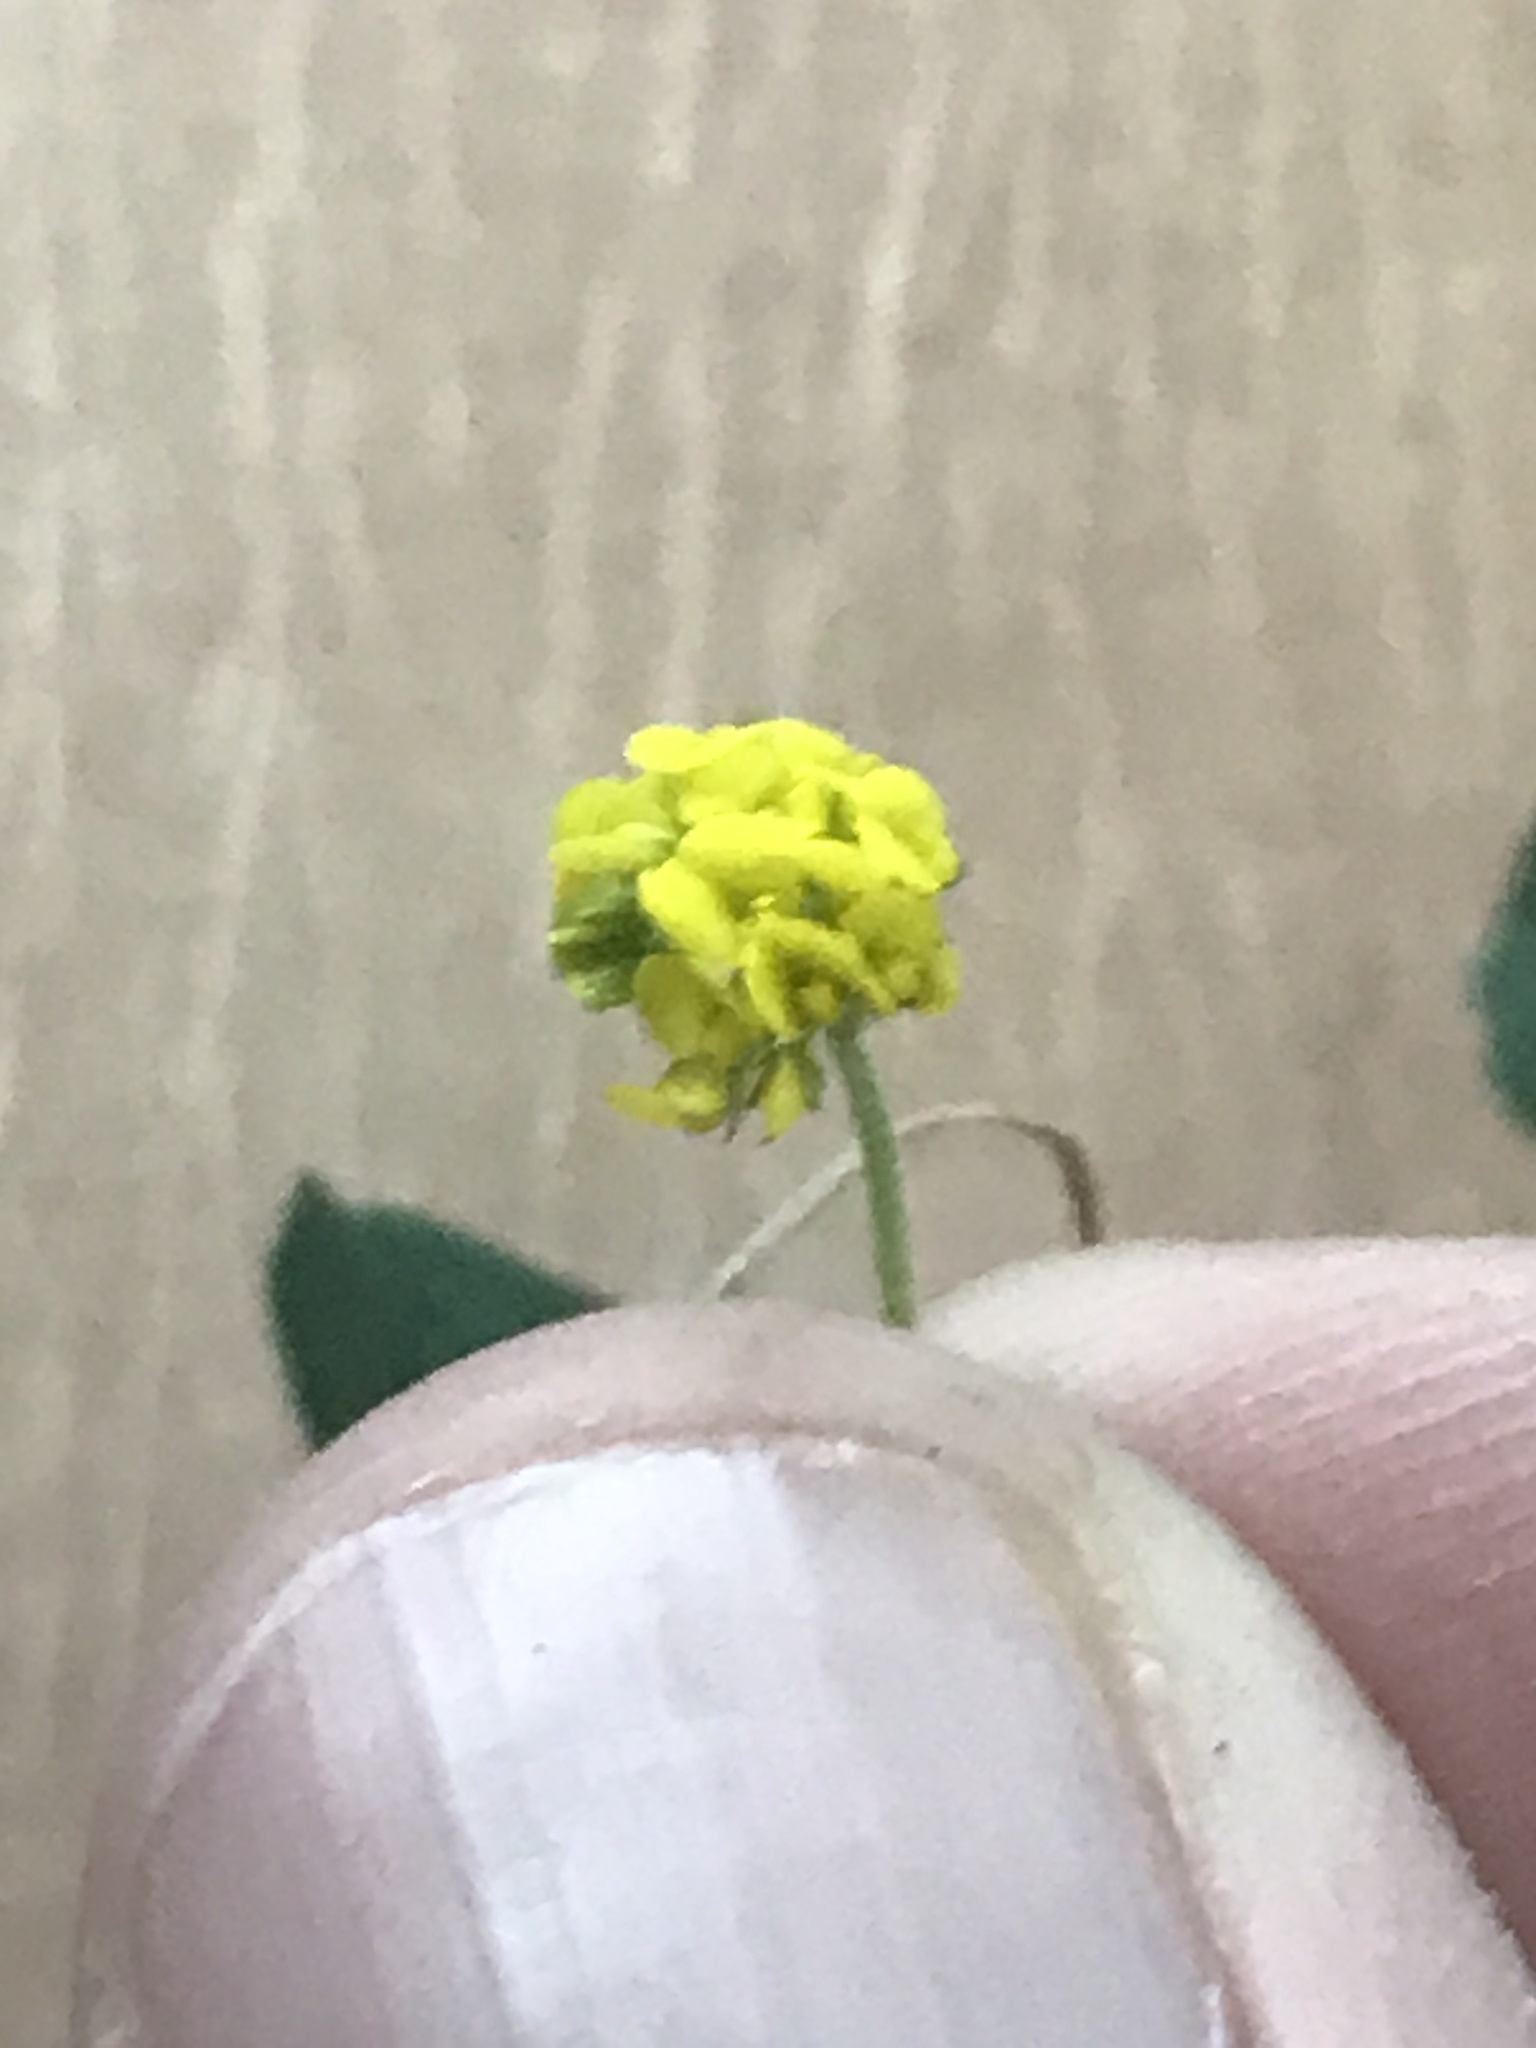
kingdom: Plantae
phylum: Tracheophyta
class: Magnoliopsida
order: Fabales
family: Fabaceae
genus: Medicago
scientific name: Medicago lupulina
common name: Black medick
